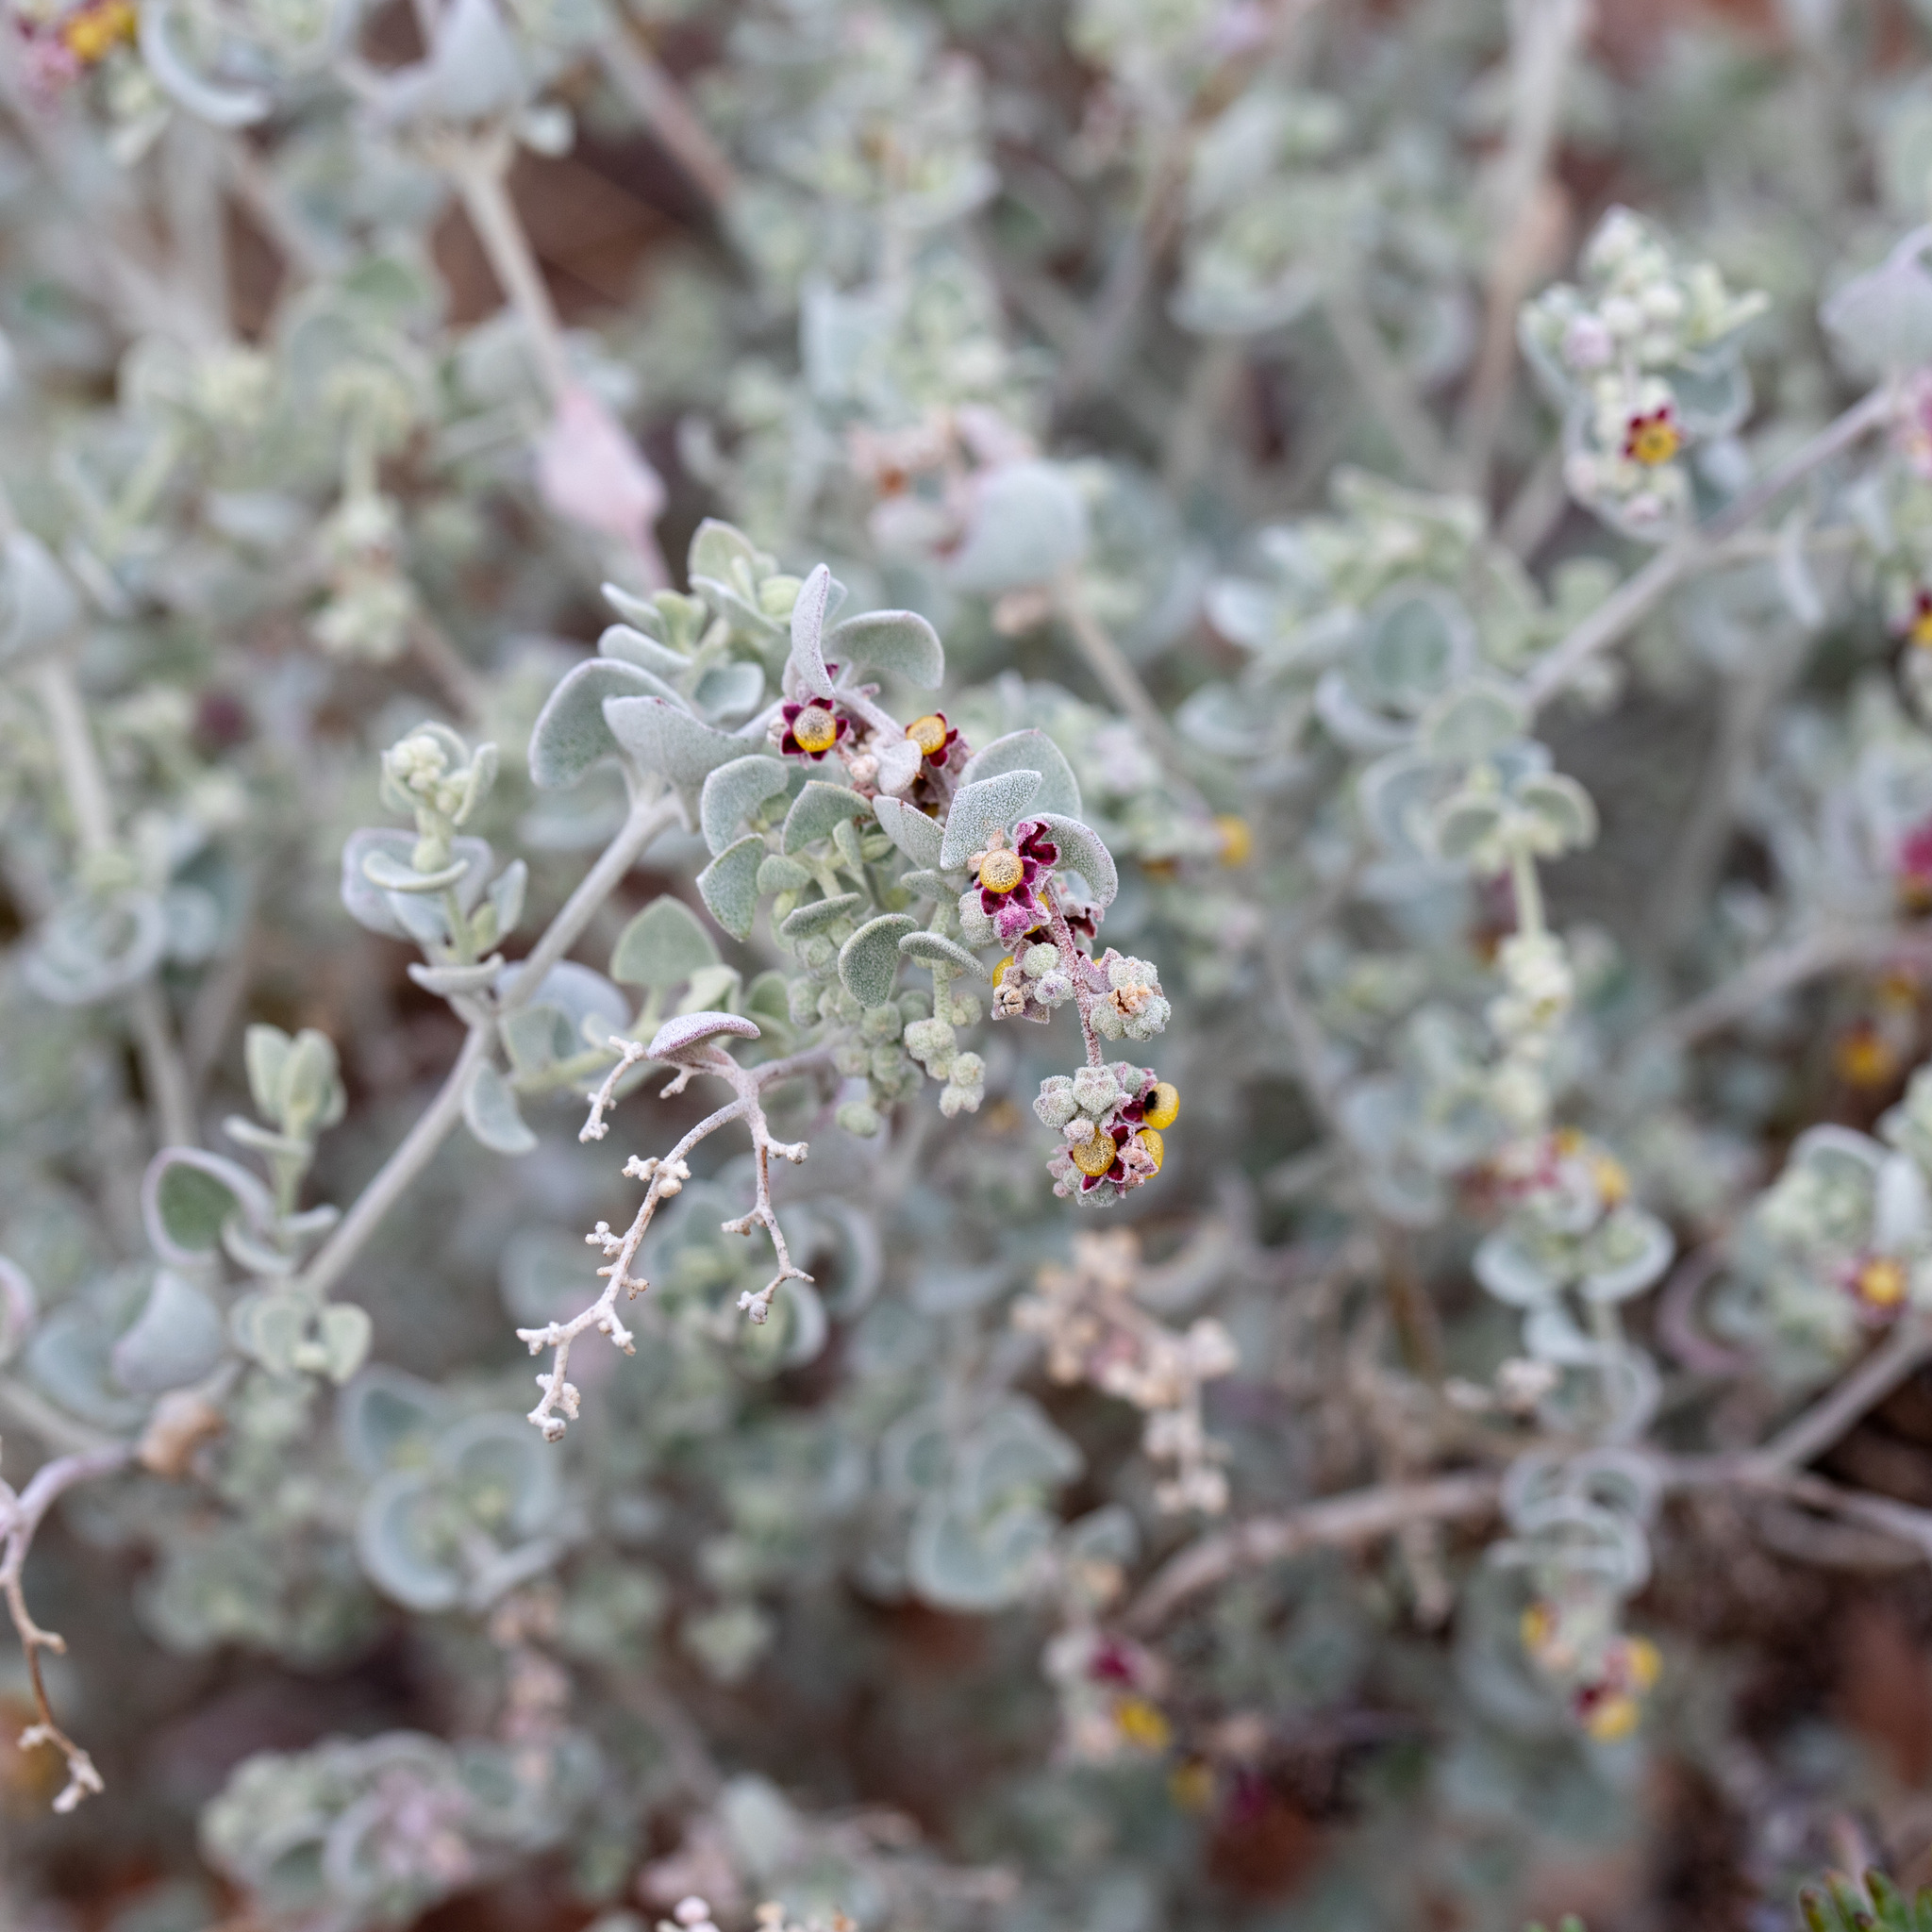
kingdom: Plantae
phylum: Tracheophyta
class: Magnoliopsida
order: Caryophyllales
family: Amaranthaceae
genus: Chenopodium
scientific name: Chenopodium curvispicatum
